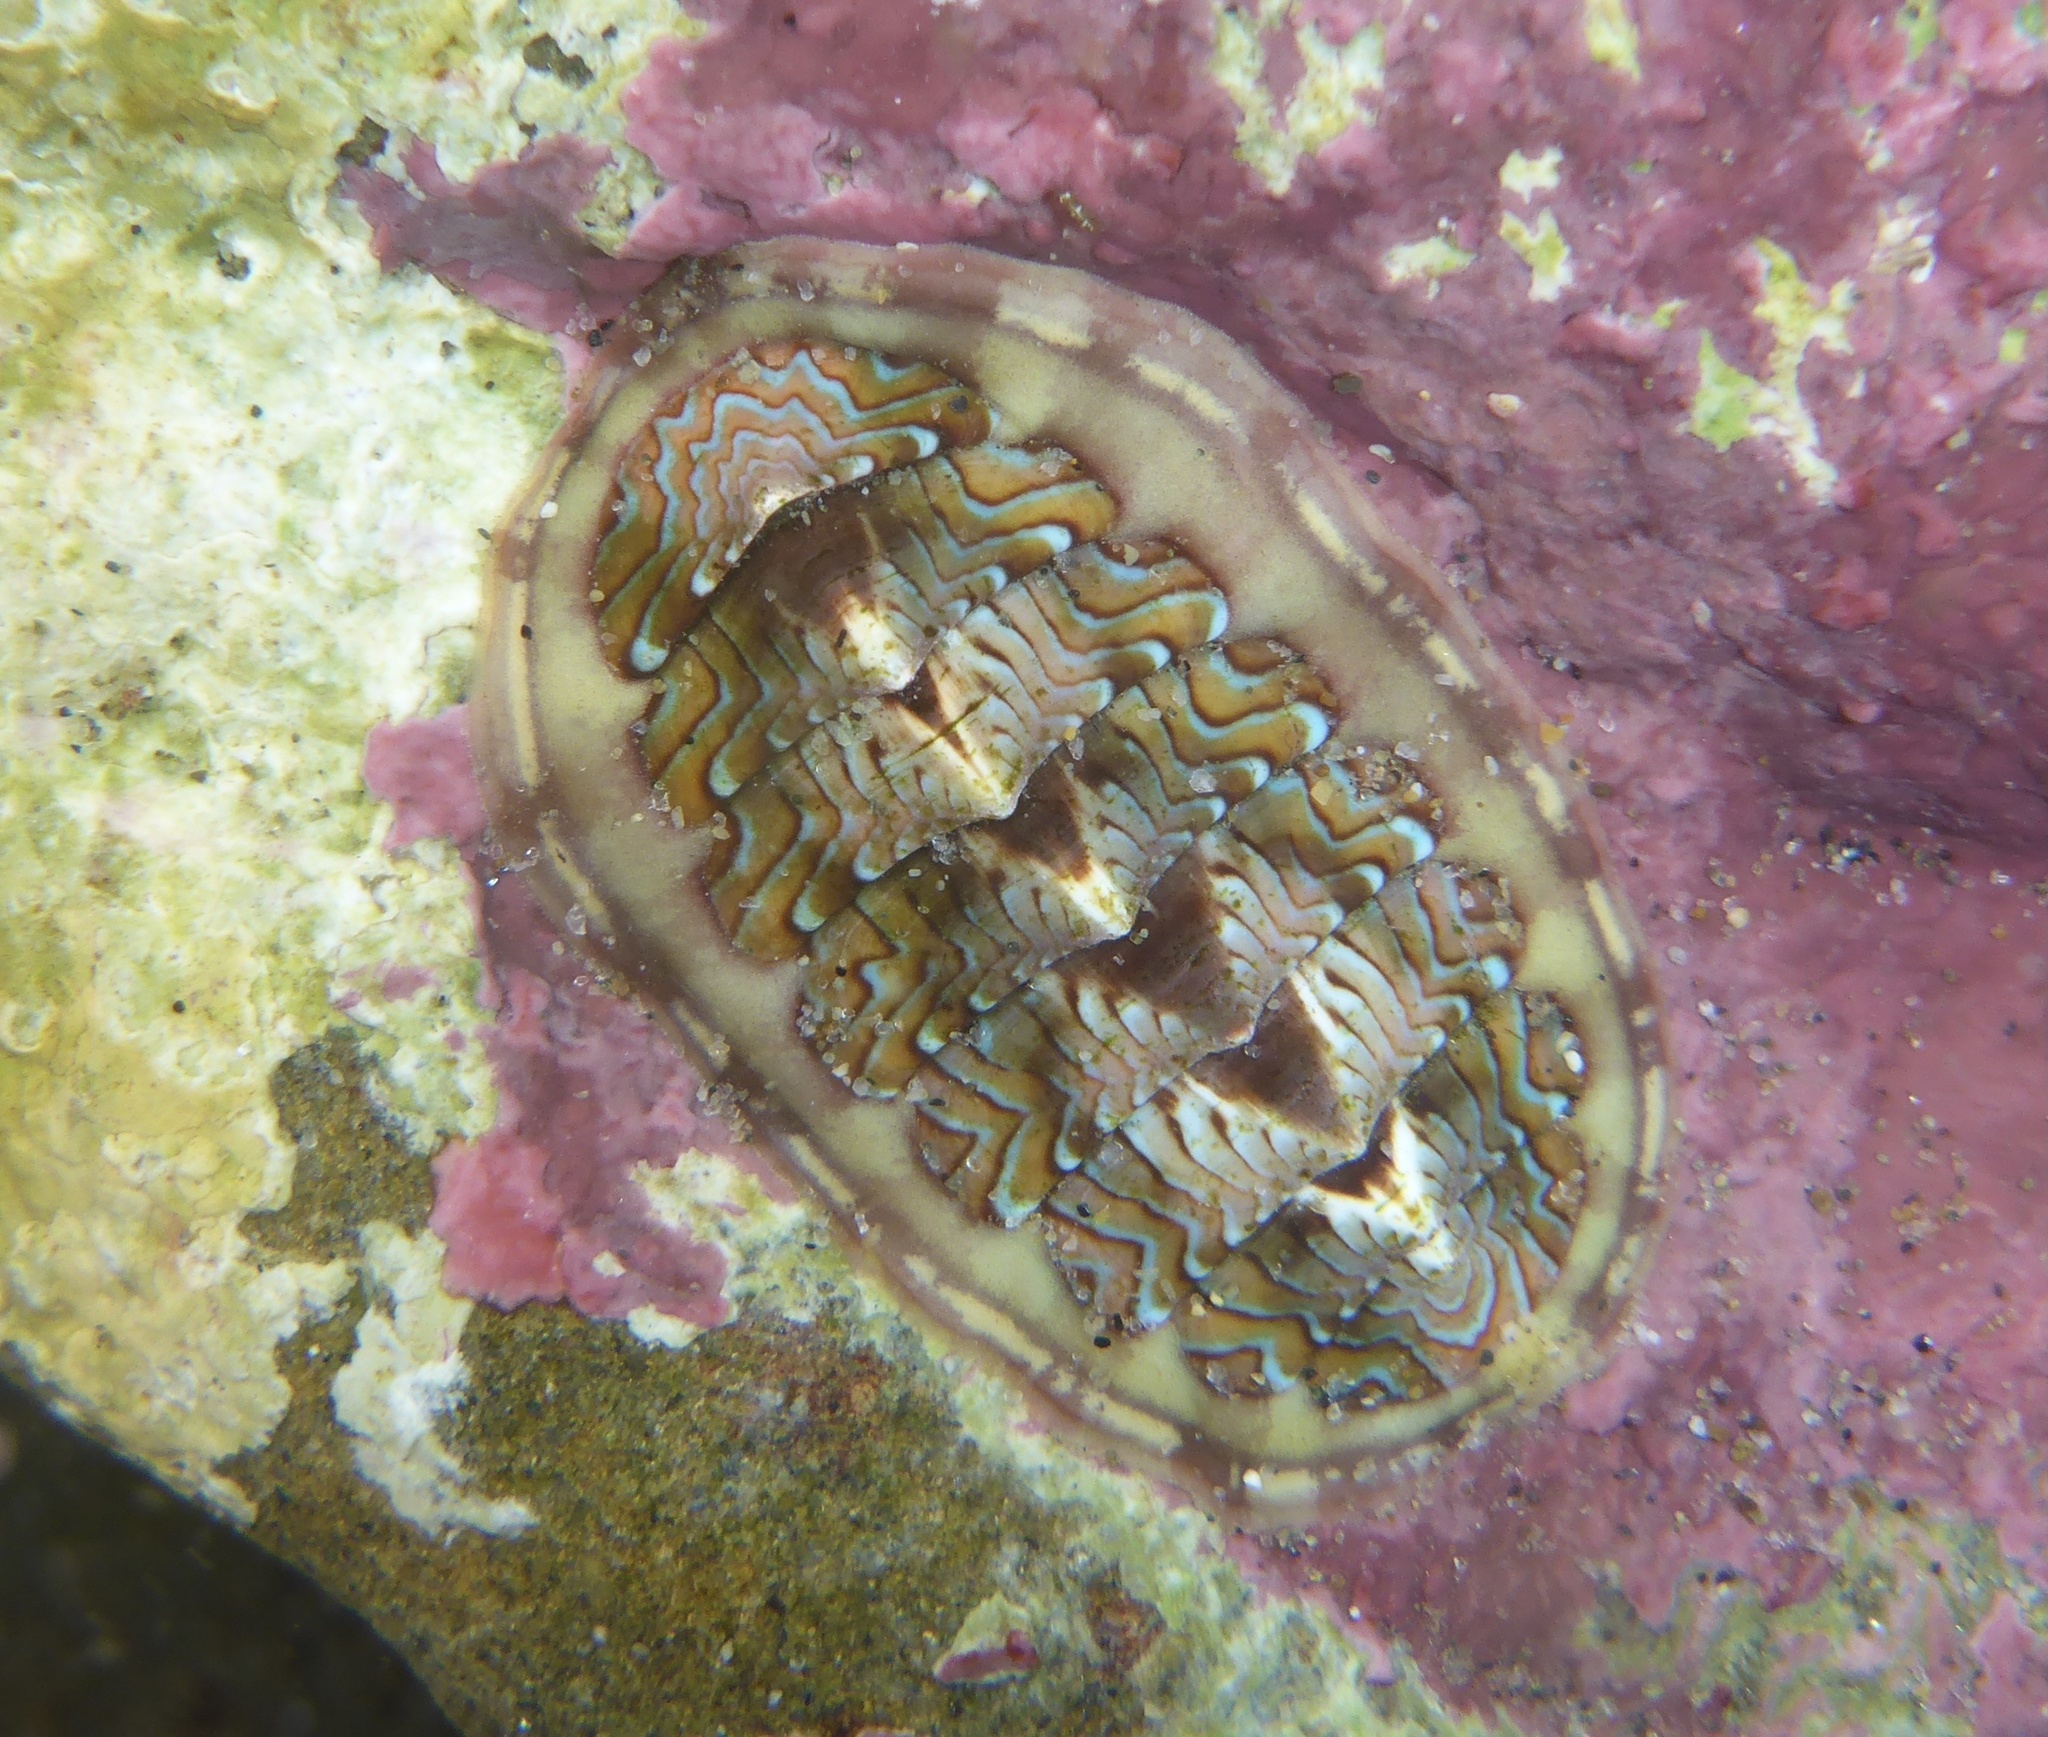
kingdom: Animalia
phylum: Mollusca
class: Polyplacophora
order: Chitonida
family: Tonicellidae
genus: Tonicella
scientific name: Tonicella lokii
